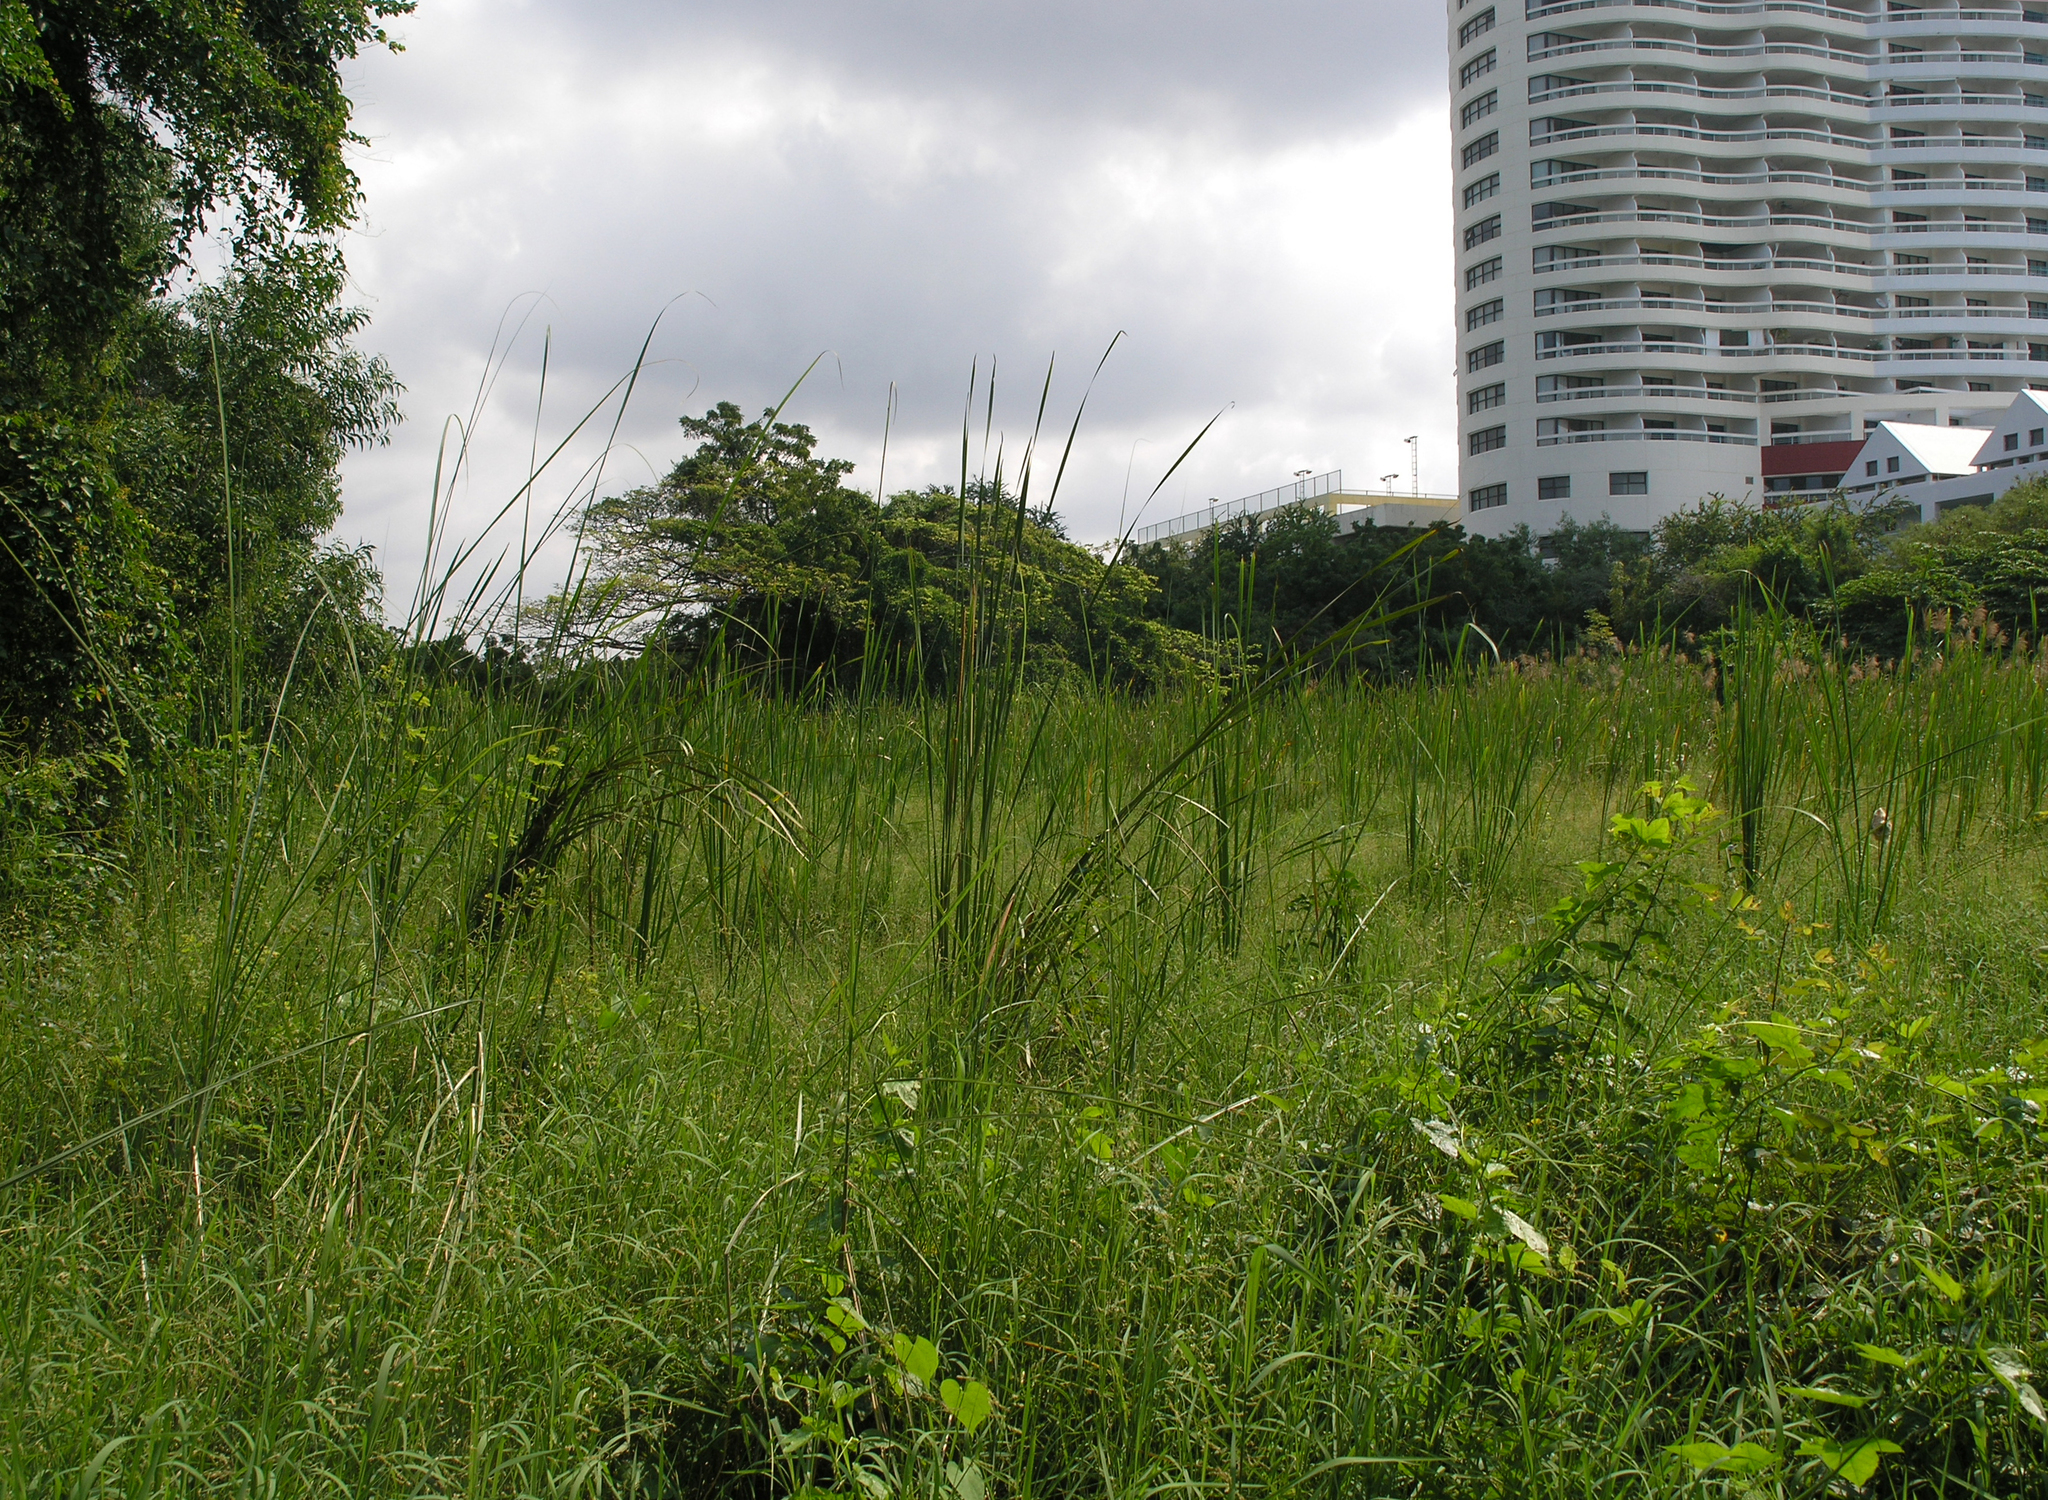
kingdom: Animalia
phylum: Arthropoda
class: Insecta
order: Odonata
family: Libellulidae
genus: Orthetrum
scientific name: Orthetrum sabina
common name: Slender skimmer
